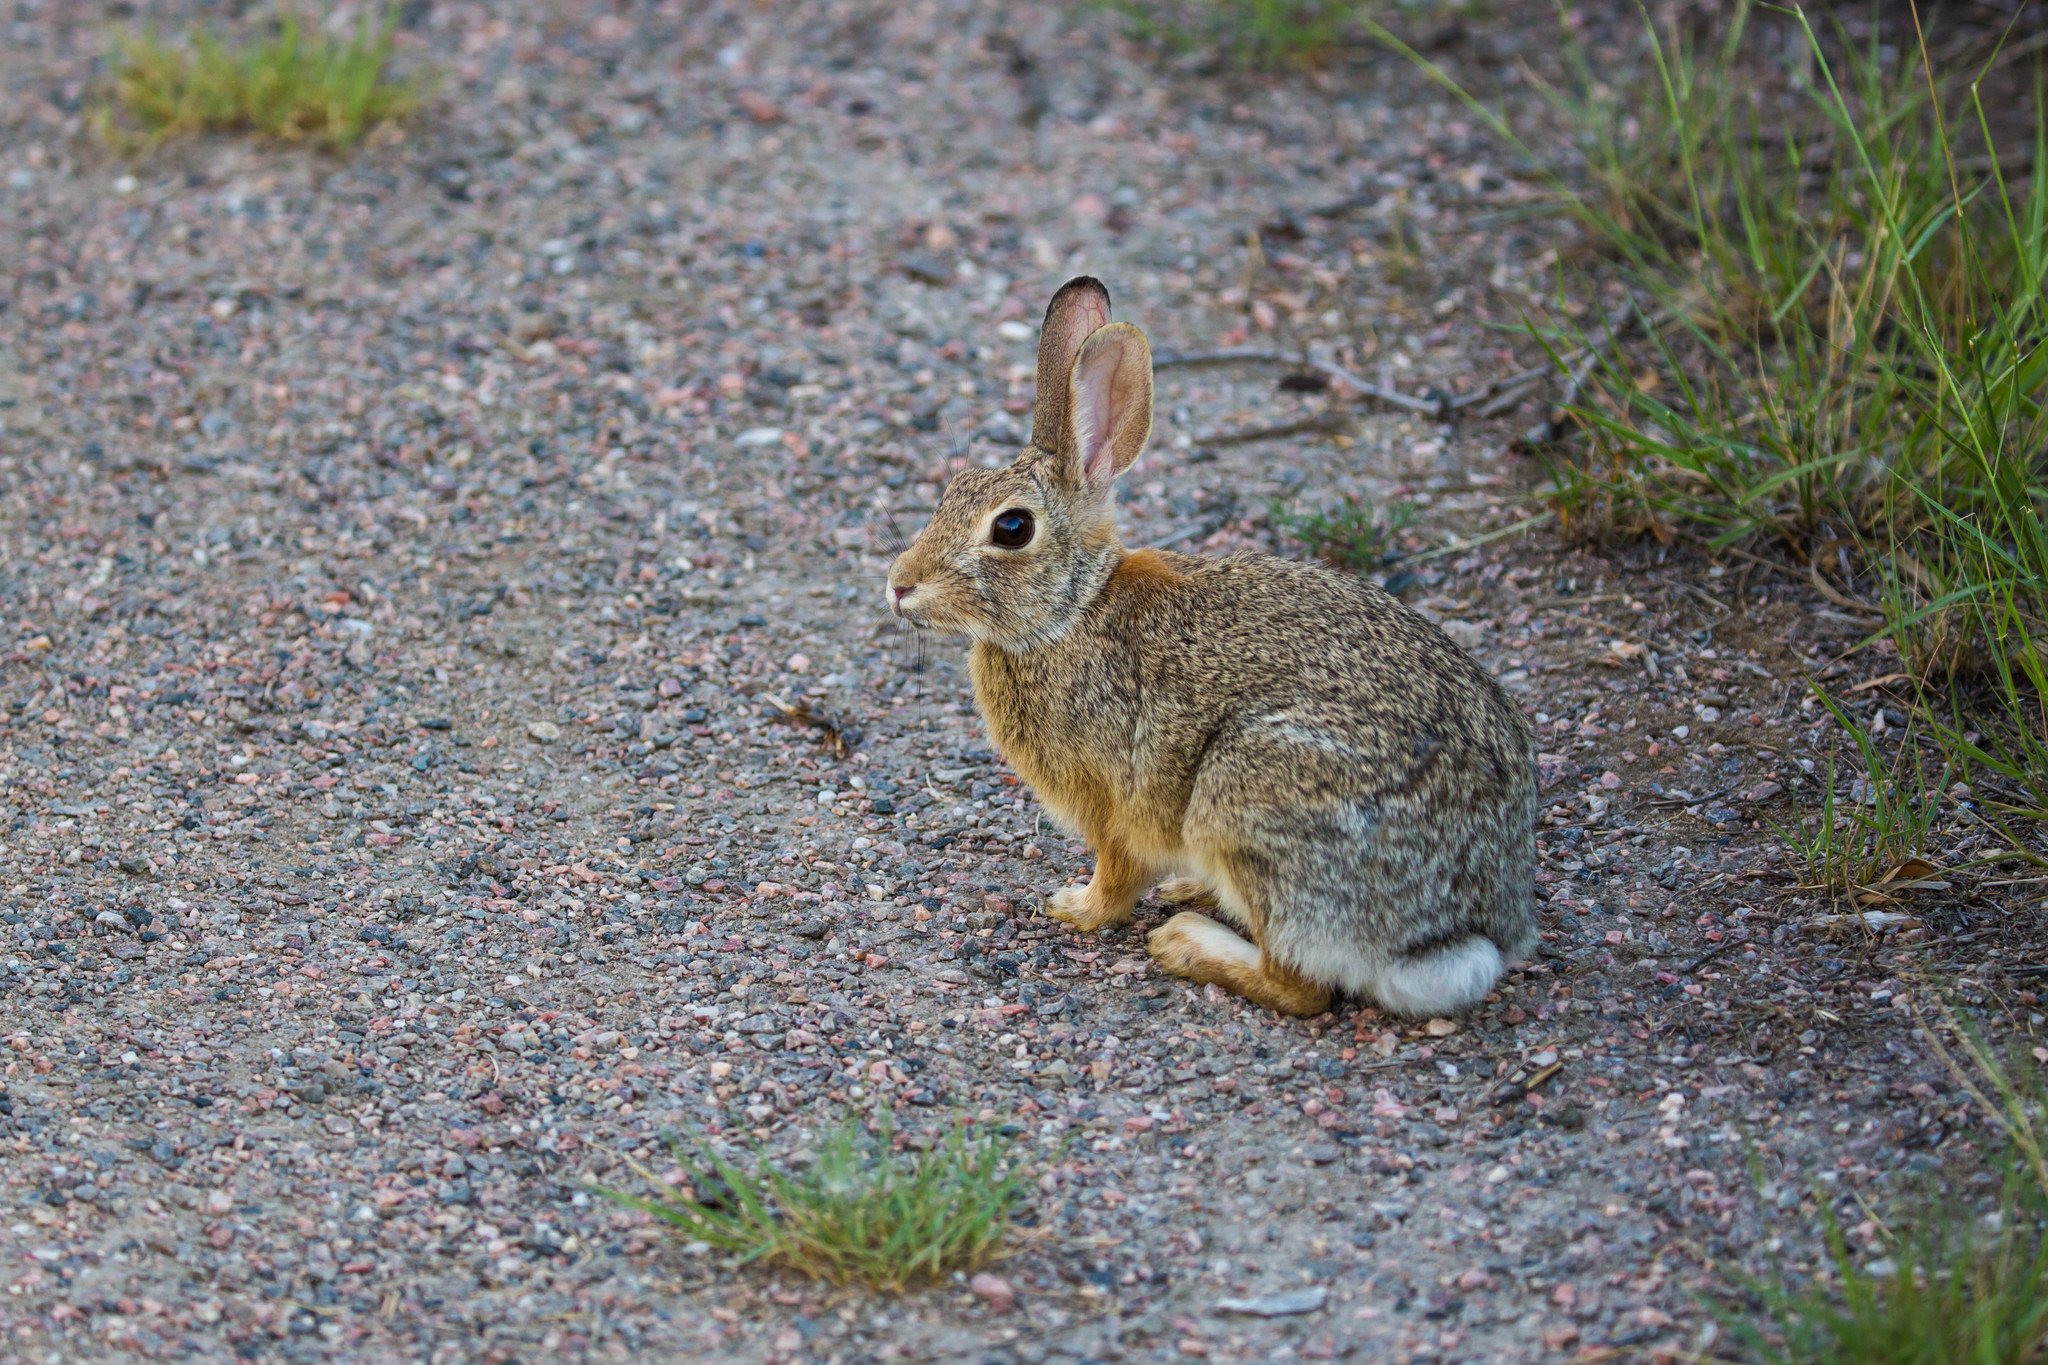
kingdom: Animalia
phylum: Chordata
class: Mammalia
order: Lagomorpha
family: Leporidae
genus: Sylvilagus
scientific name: Sylvilagus audubonii
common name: Desert cottontail
